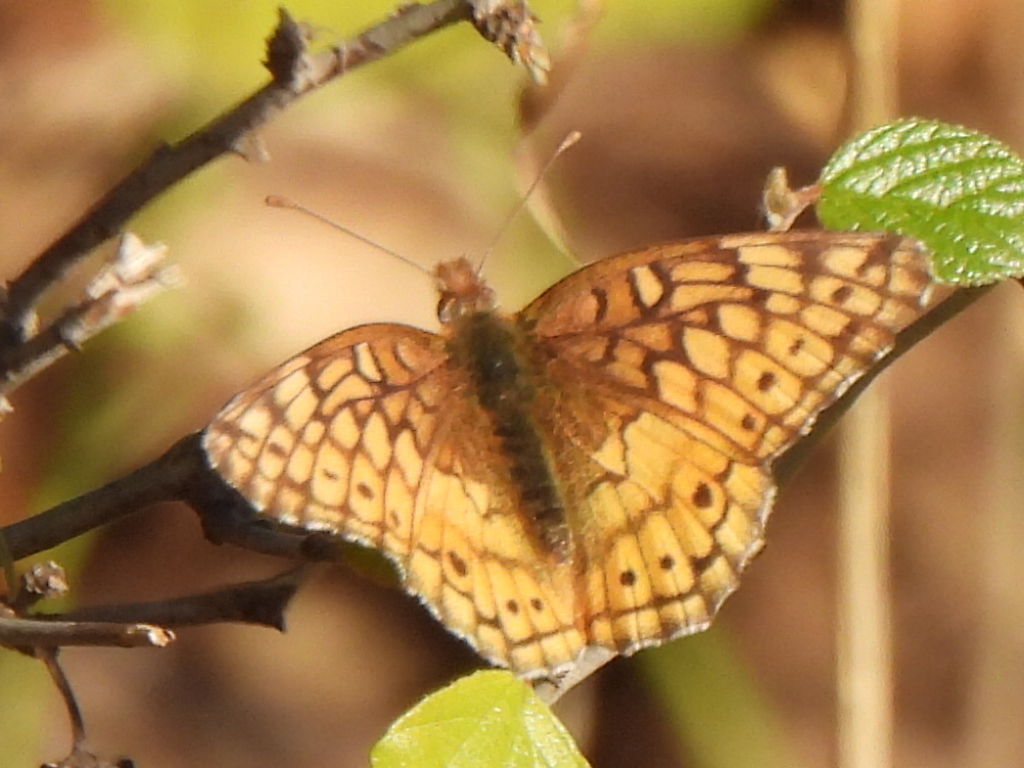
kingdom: Animalia
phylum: Arthropoda
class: Insecta
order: Lepidoptera
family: Nymphalidae
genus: Euptoieta
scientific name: Euptoieta claudia
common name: Variegated fritillary
